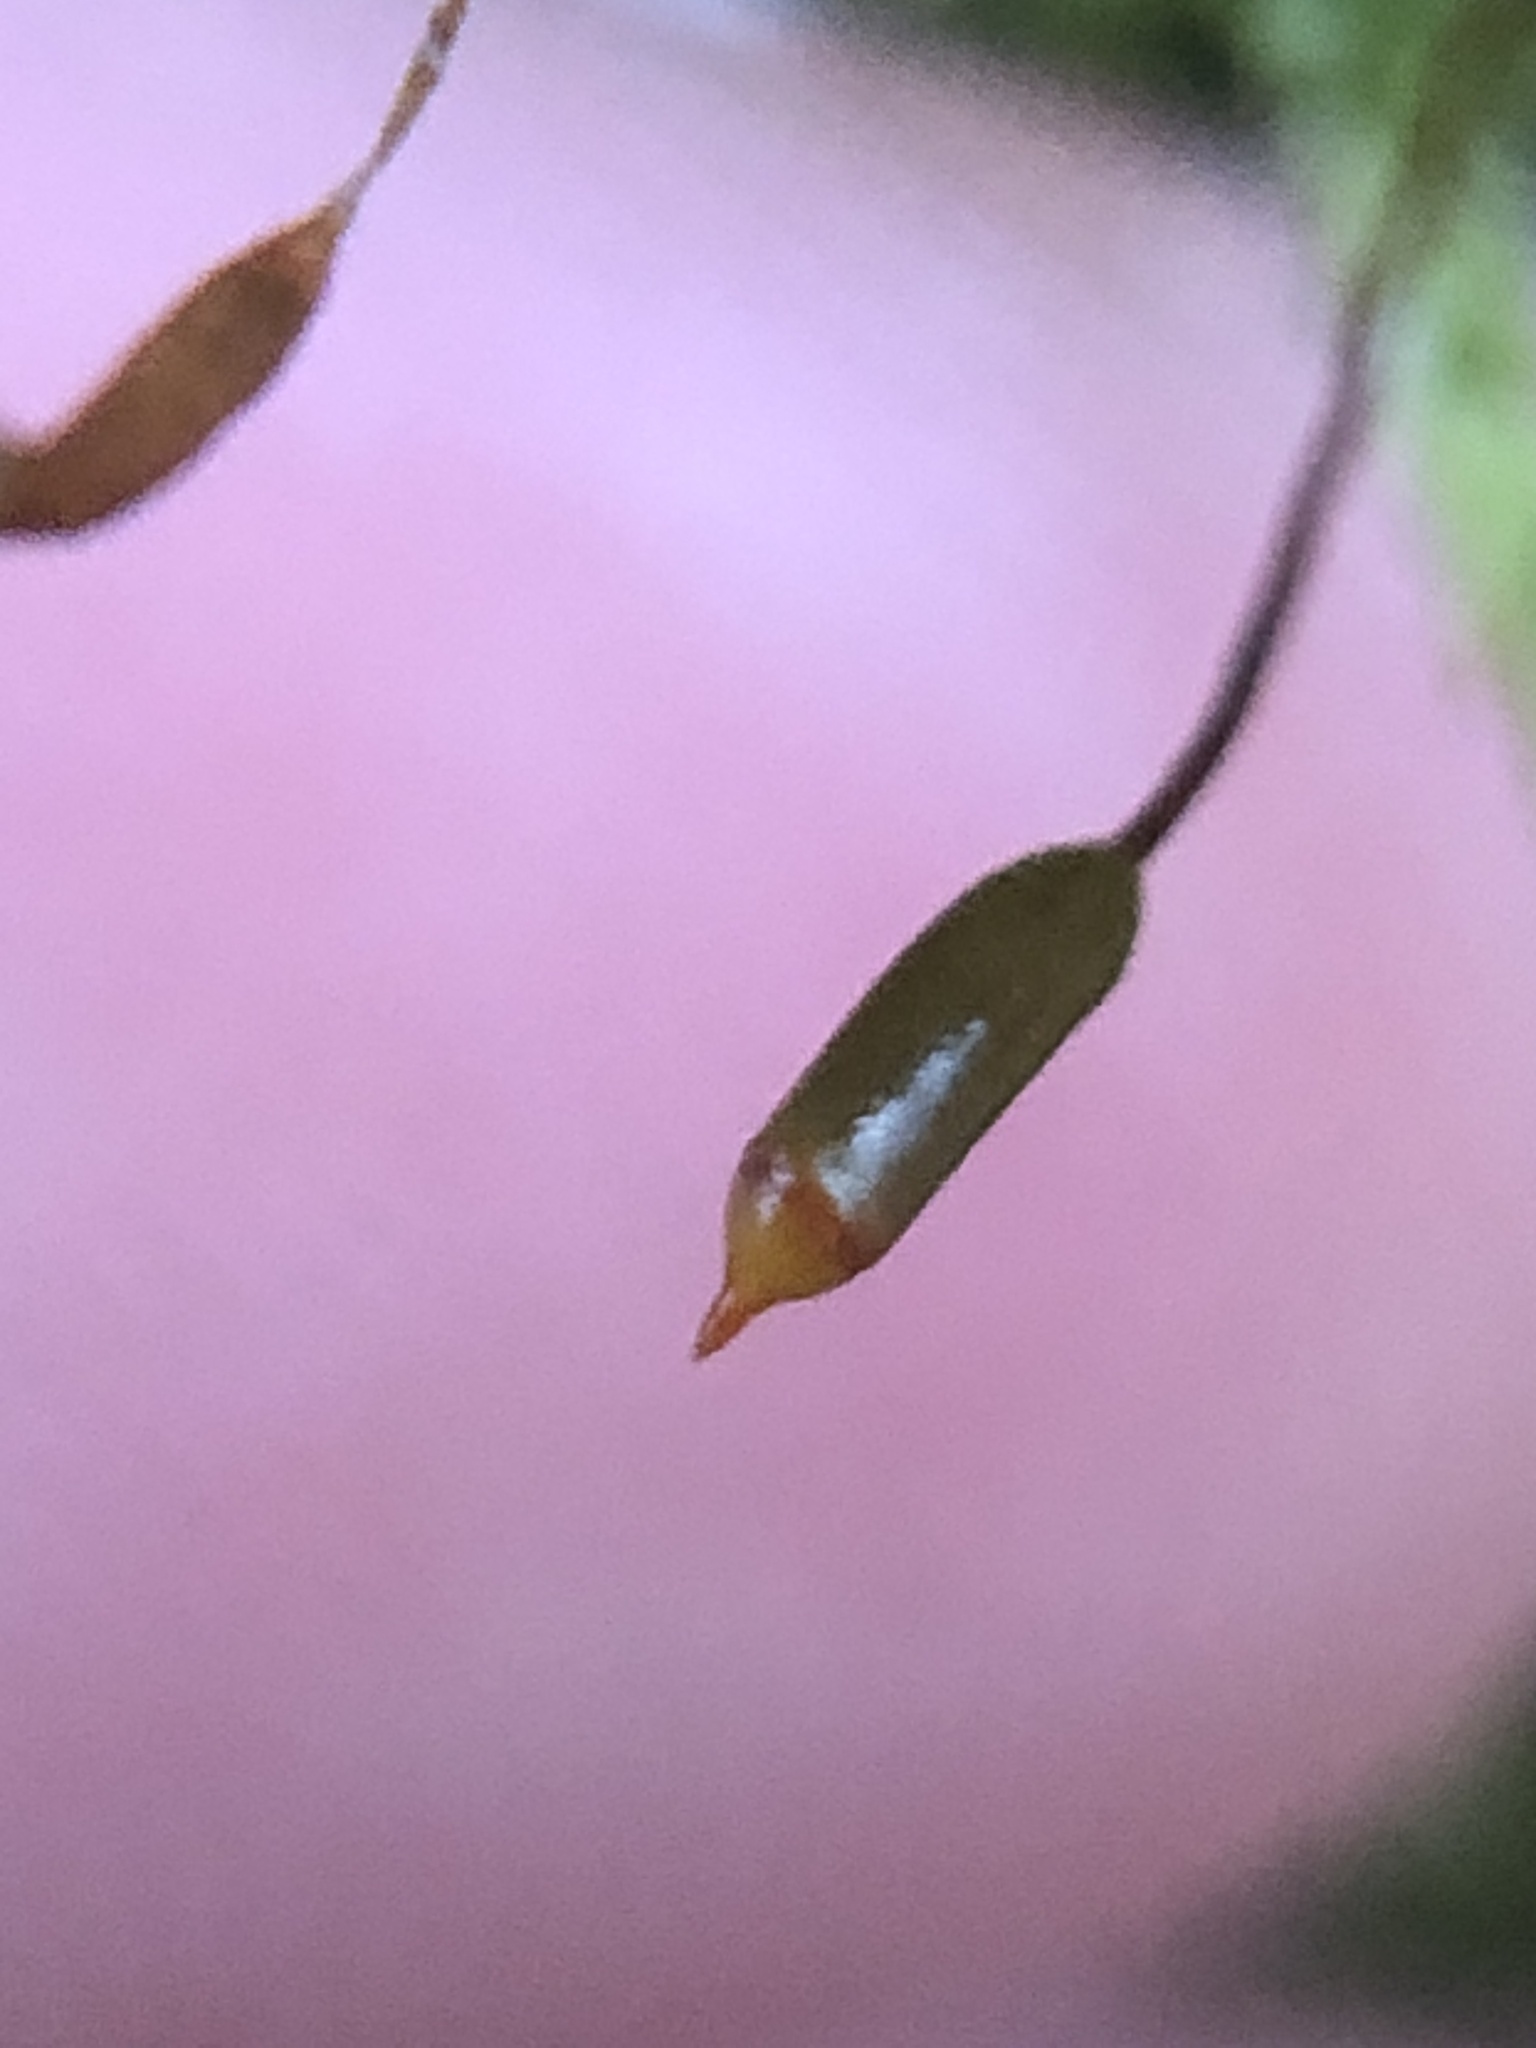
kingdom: Plantae
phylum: Bryophyta
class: Bryopsida
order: Hypnales
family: Hypnaceae
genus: Hypnum
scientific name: Hypnum cupressiforme
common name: Cypress-leaved plait-moss
